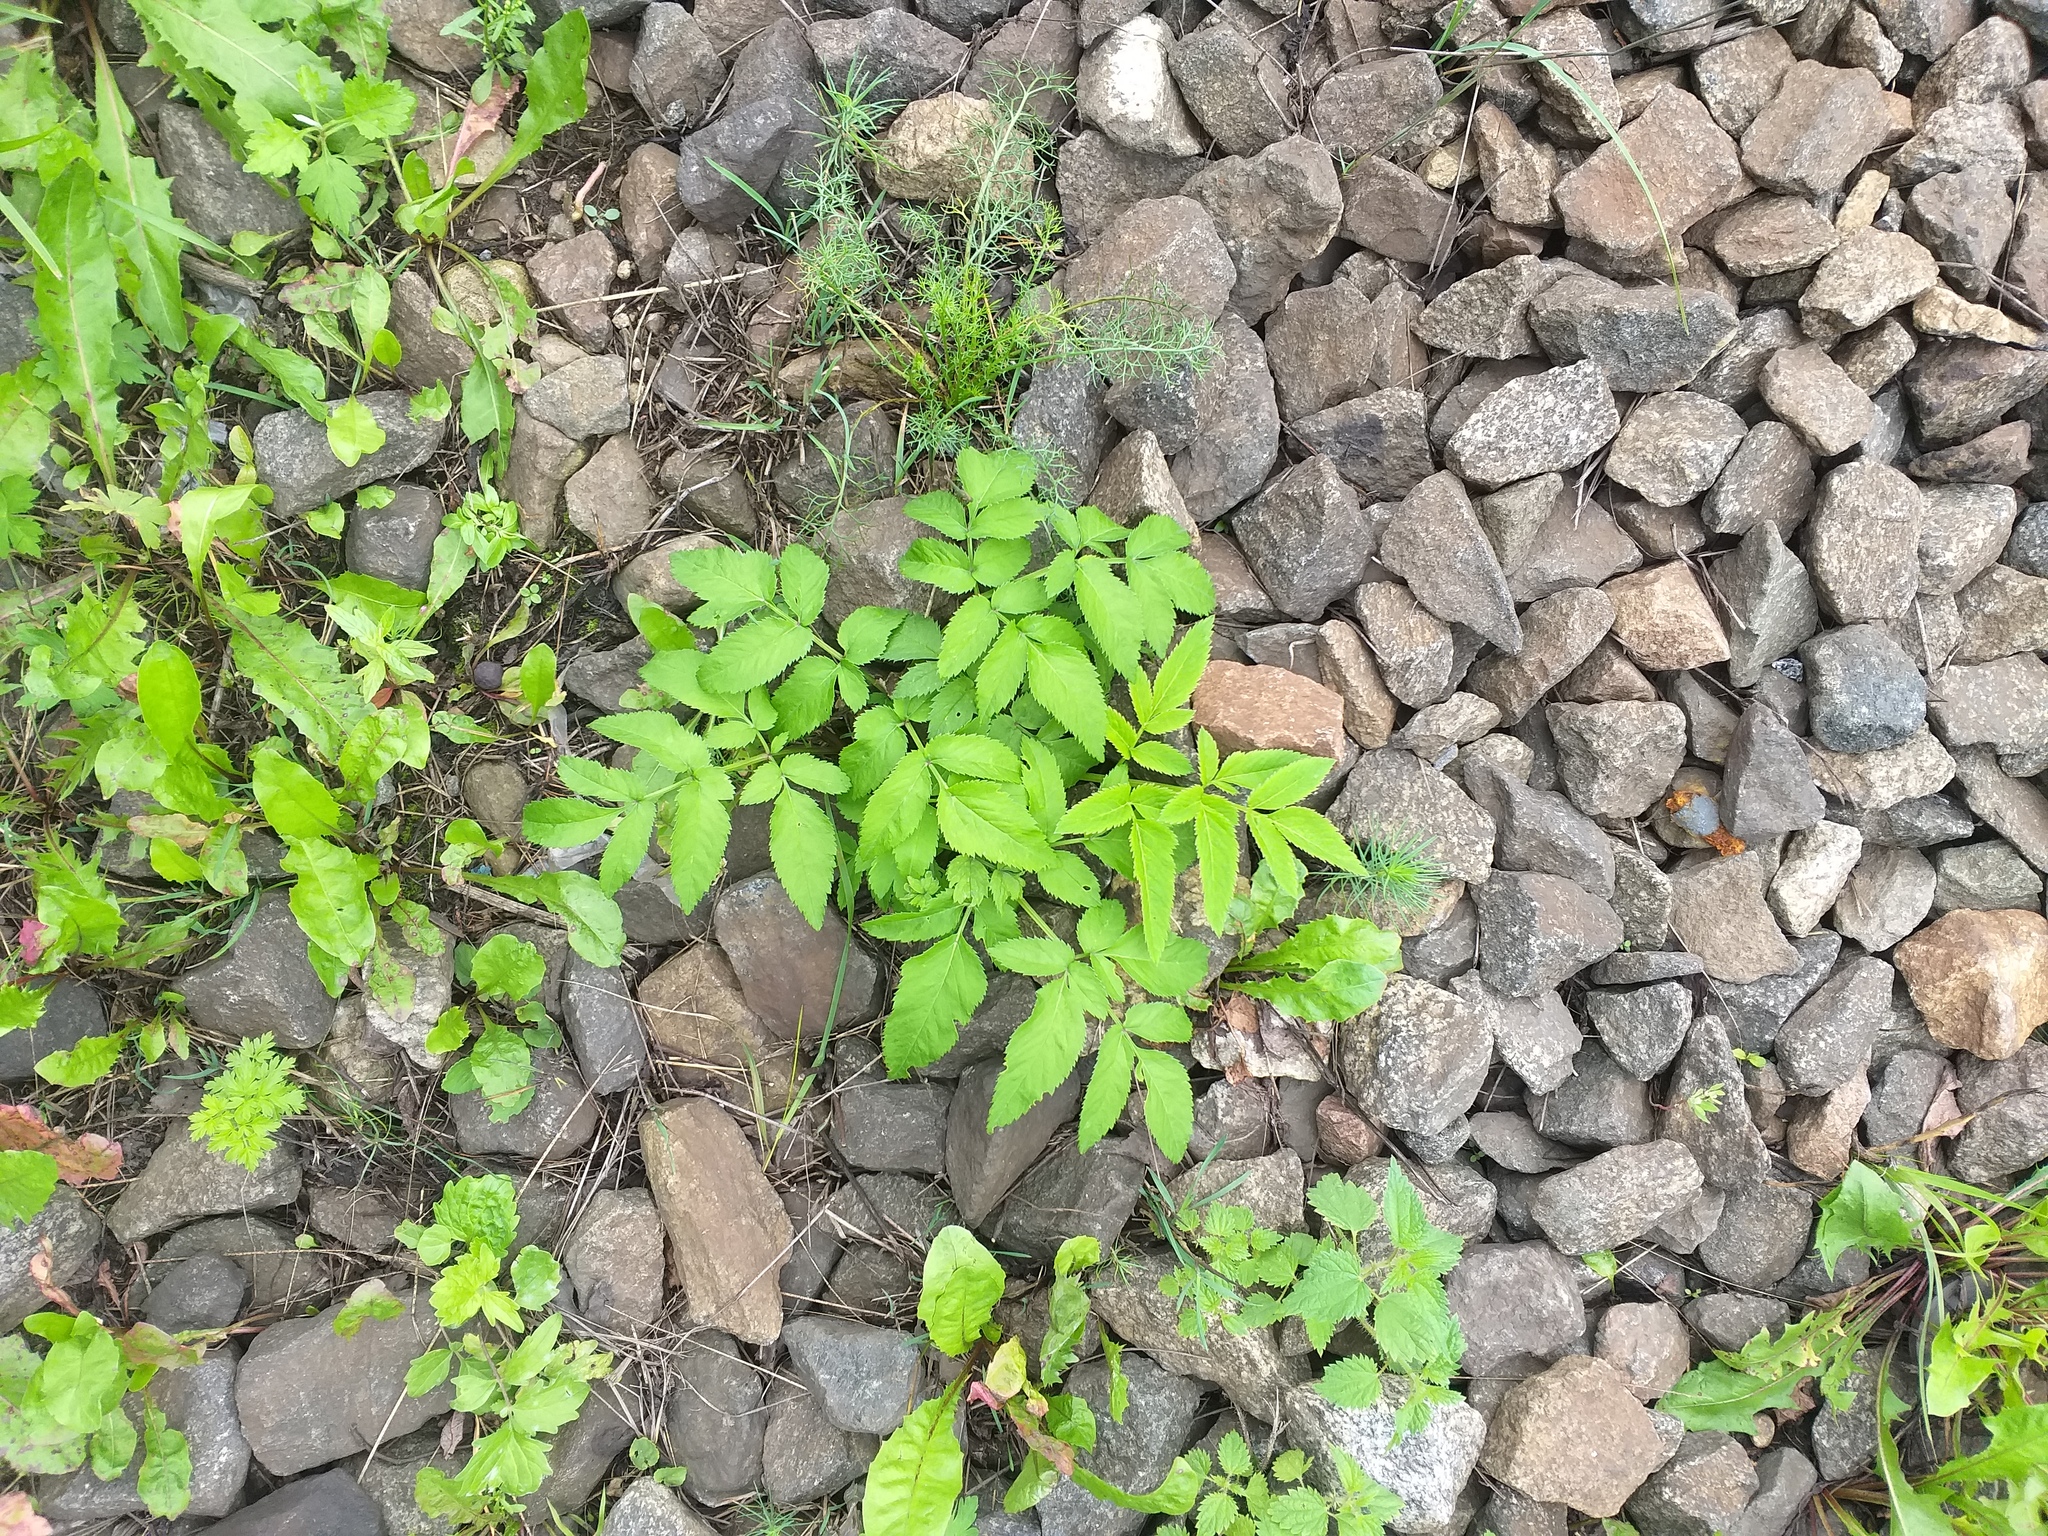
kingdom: Plantae
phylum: Tracheophyta
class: Magnoliopsida
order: Apiales
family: Apiaceae
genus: Angelica
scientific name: Angelica sylvestris
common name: Wild angelica
